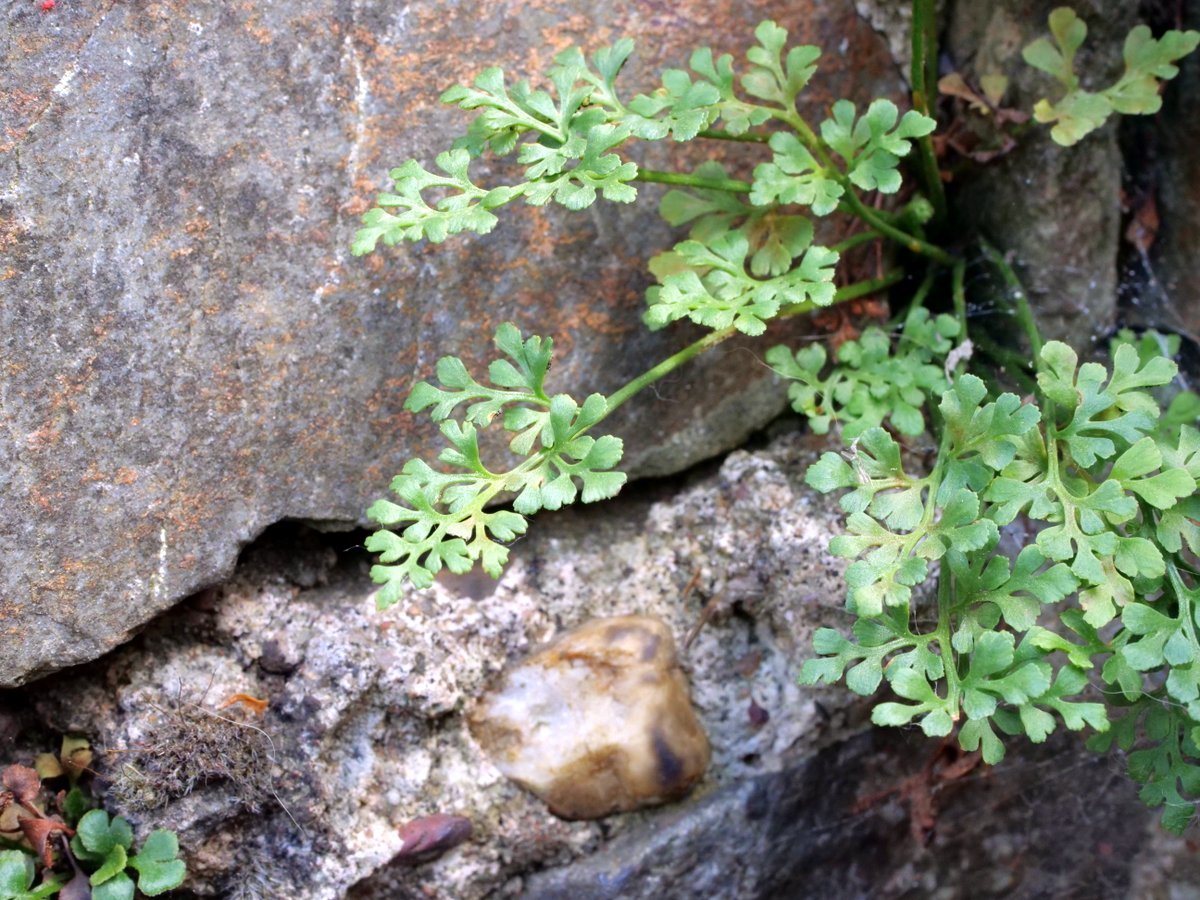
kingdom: Plantae
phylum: Tracheophyta
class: Polypodiopsida
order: Polypodiales
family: Aspleniaceae
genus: Asplenium
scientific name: Asplenium ruta-muraria
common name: Wall-rue
